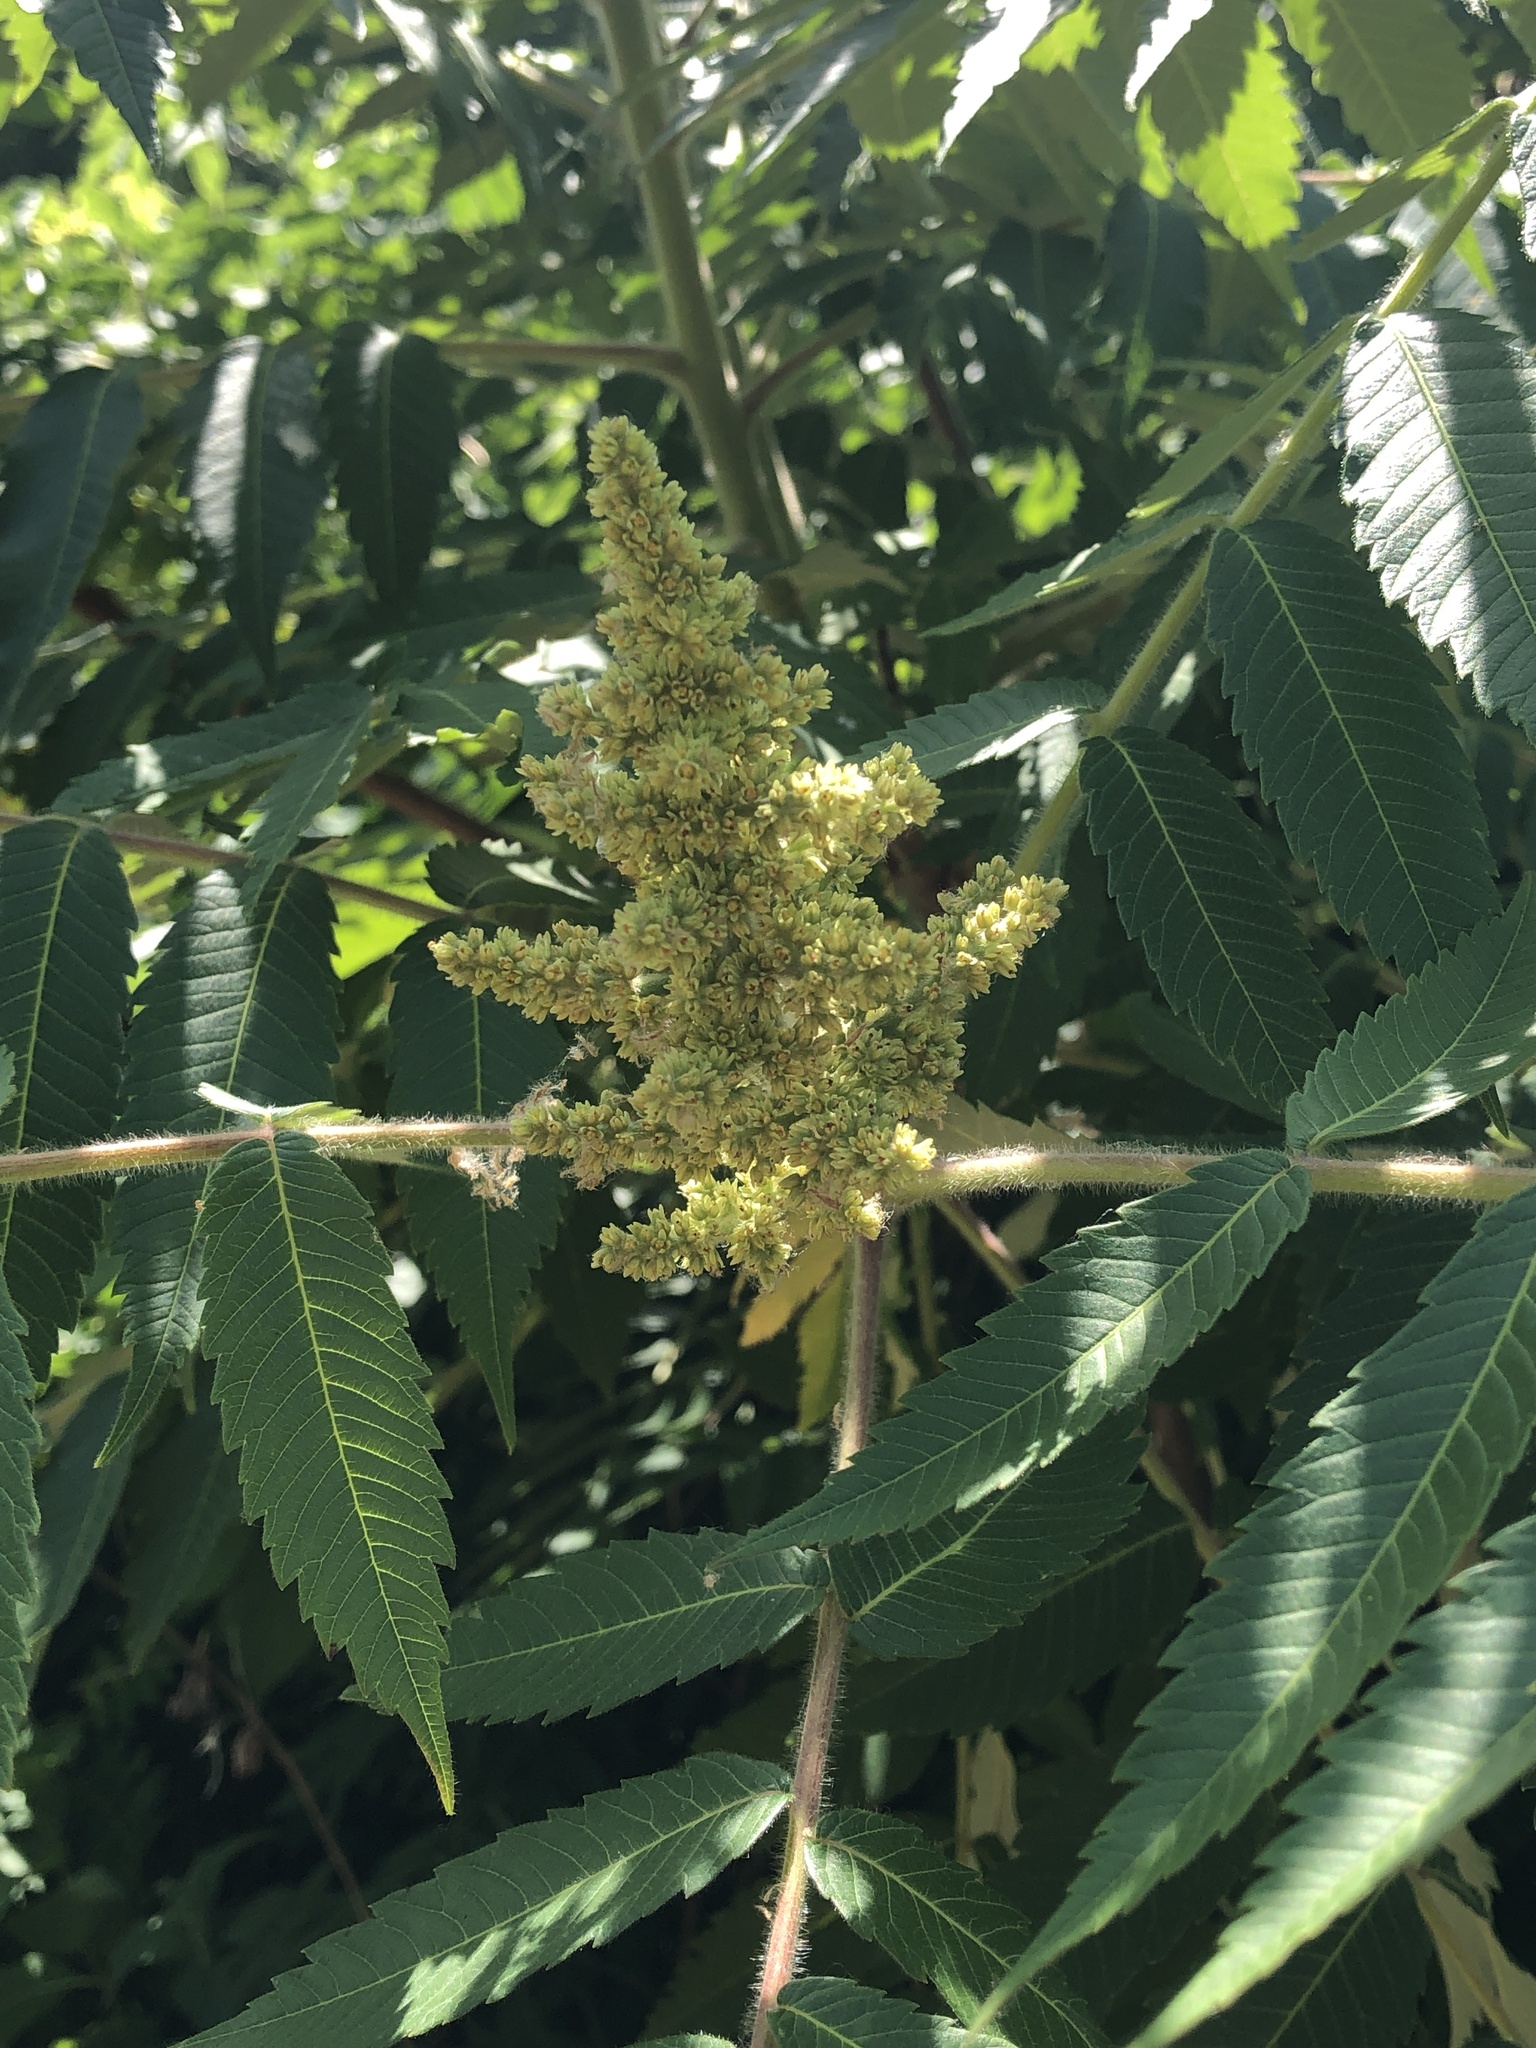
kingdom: Plantae
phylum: Tracheophyta
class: Magnoliopsida
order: Sapindales
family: Anacardiaceae
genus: Rhus
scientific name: Rhus typhina
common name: Staghorn sumac
